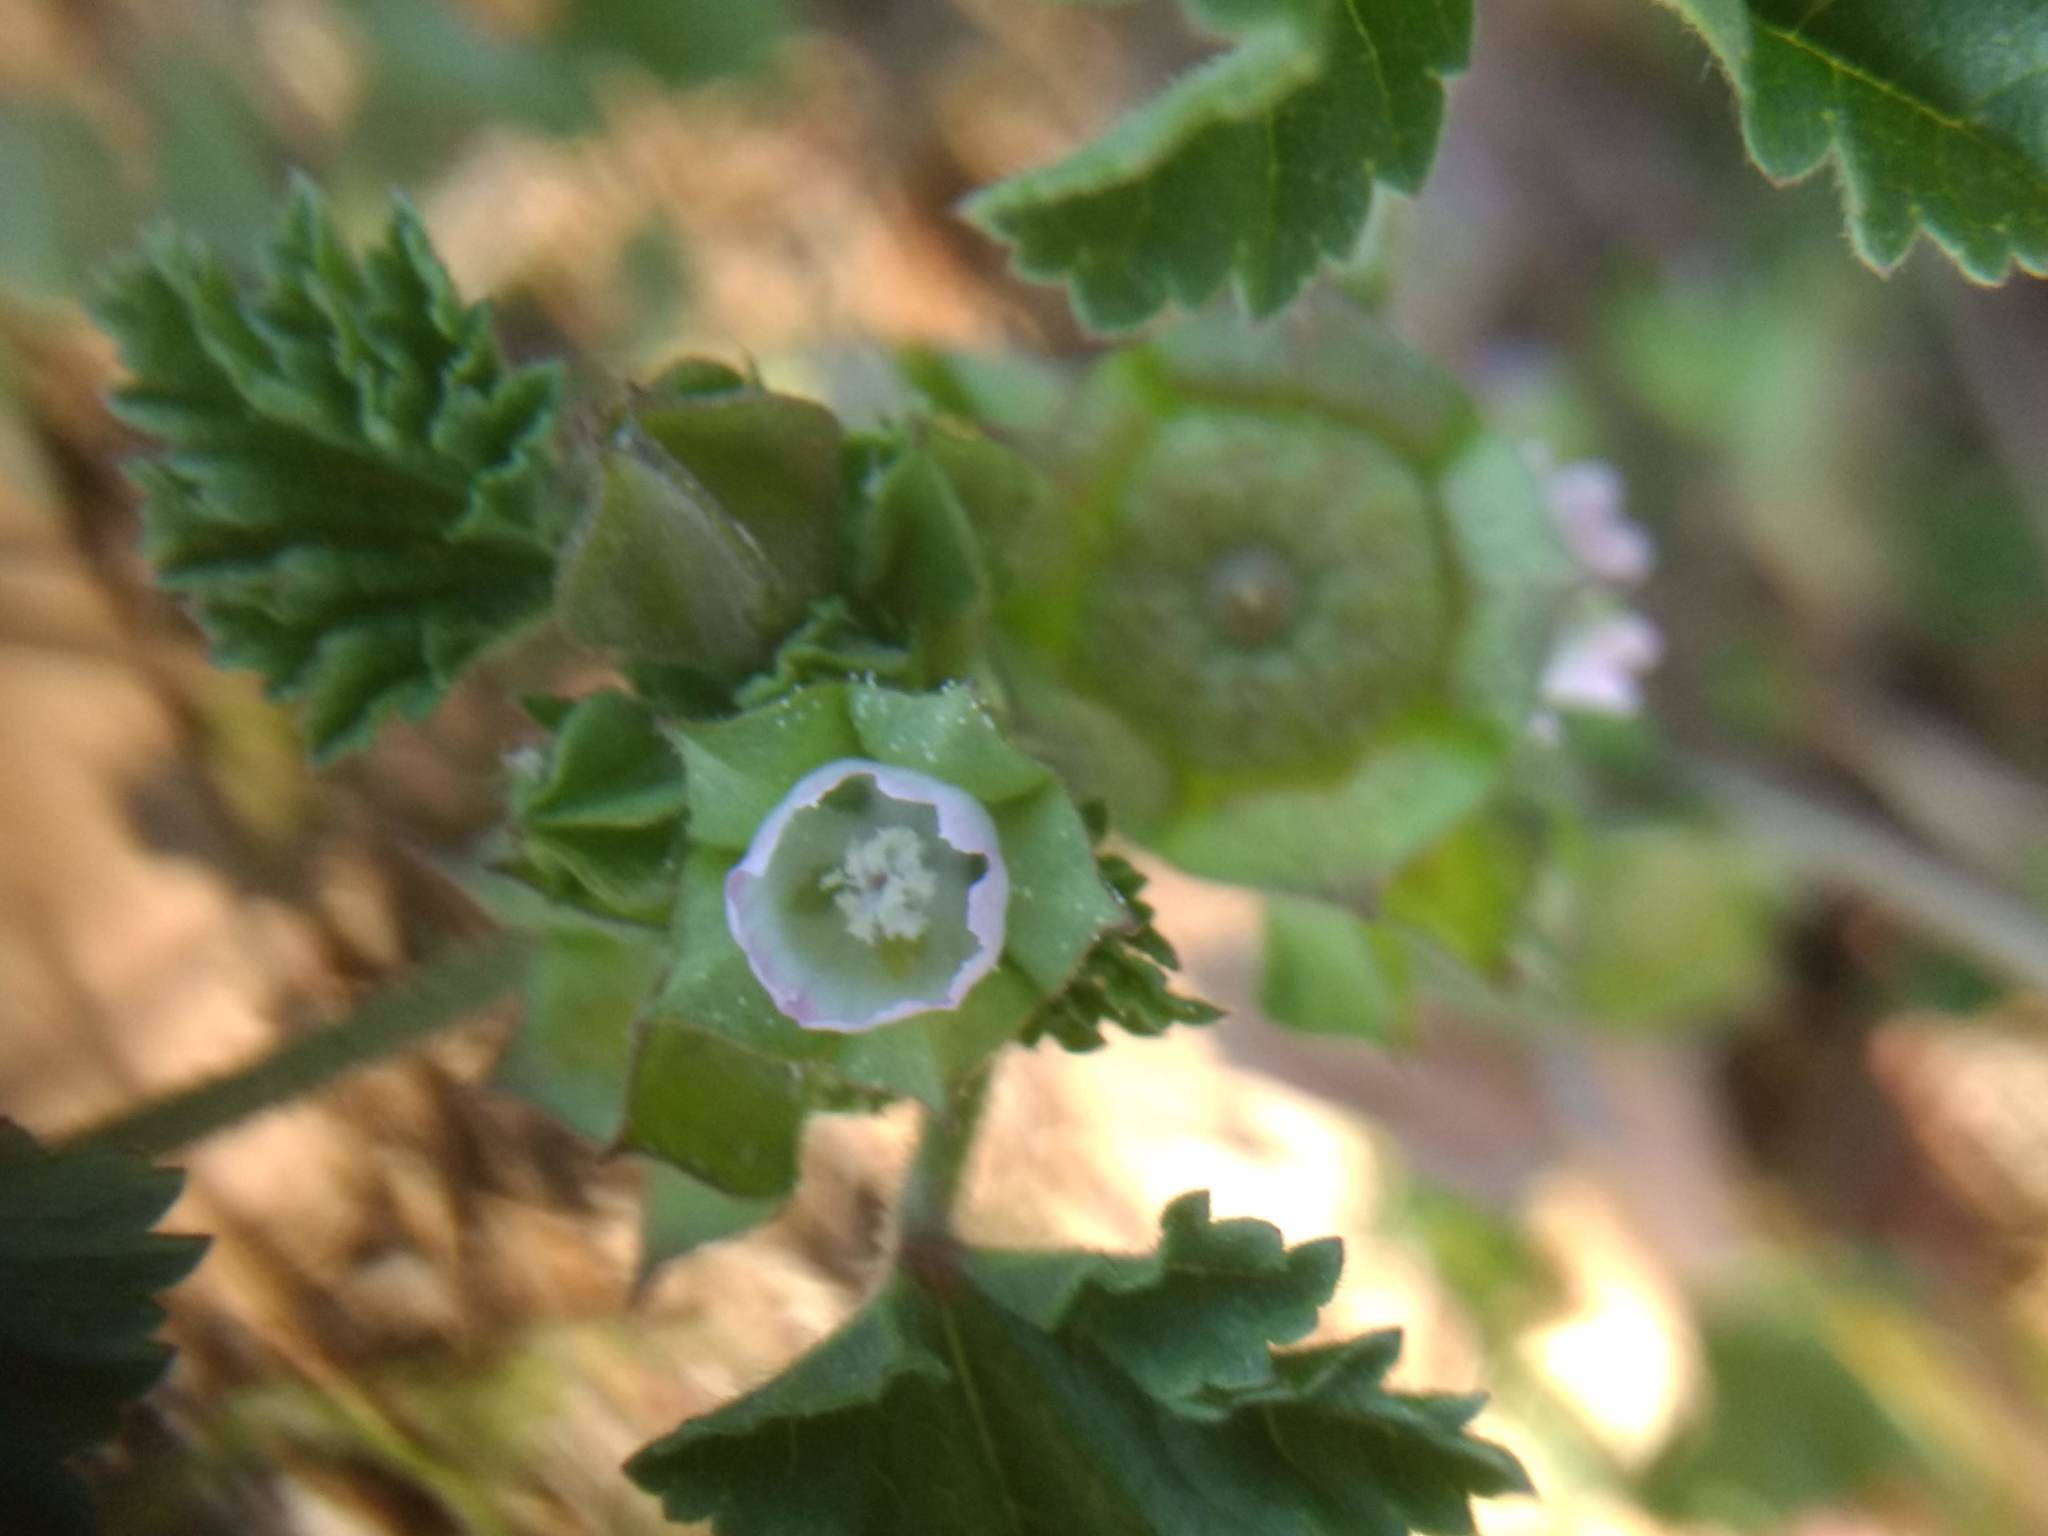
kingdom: Plantae
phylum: Tracheophyta
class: Magnoliopsida
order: Malvales
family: Malvaceae
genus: Malva
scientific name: Malva parviflora
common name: Least mallow
